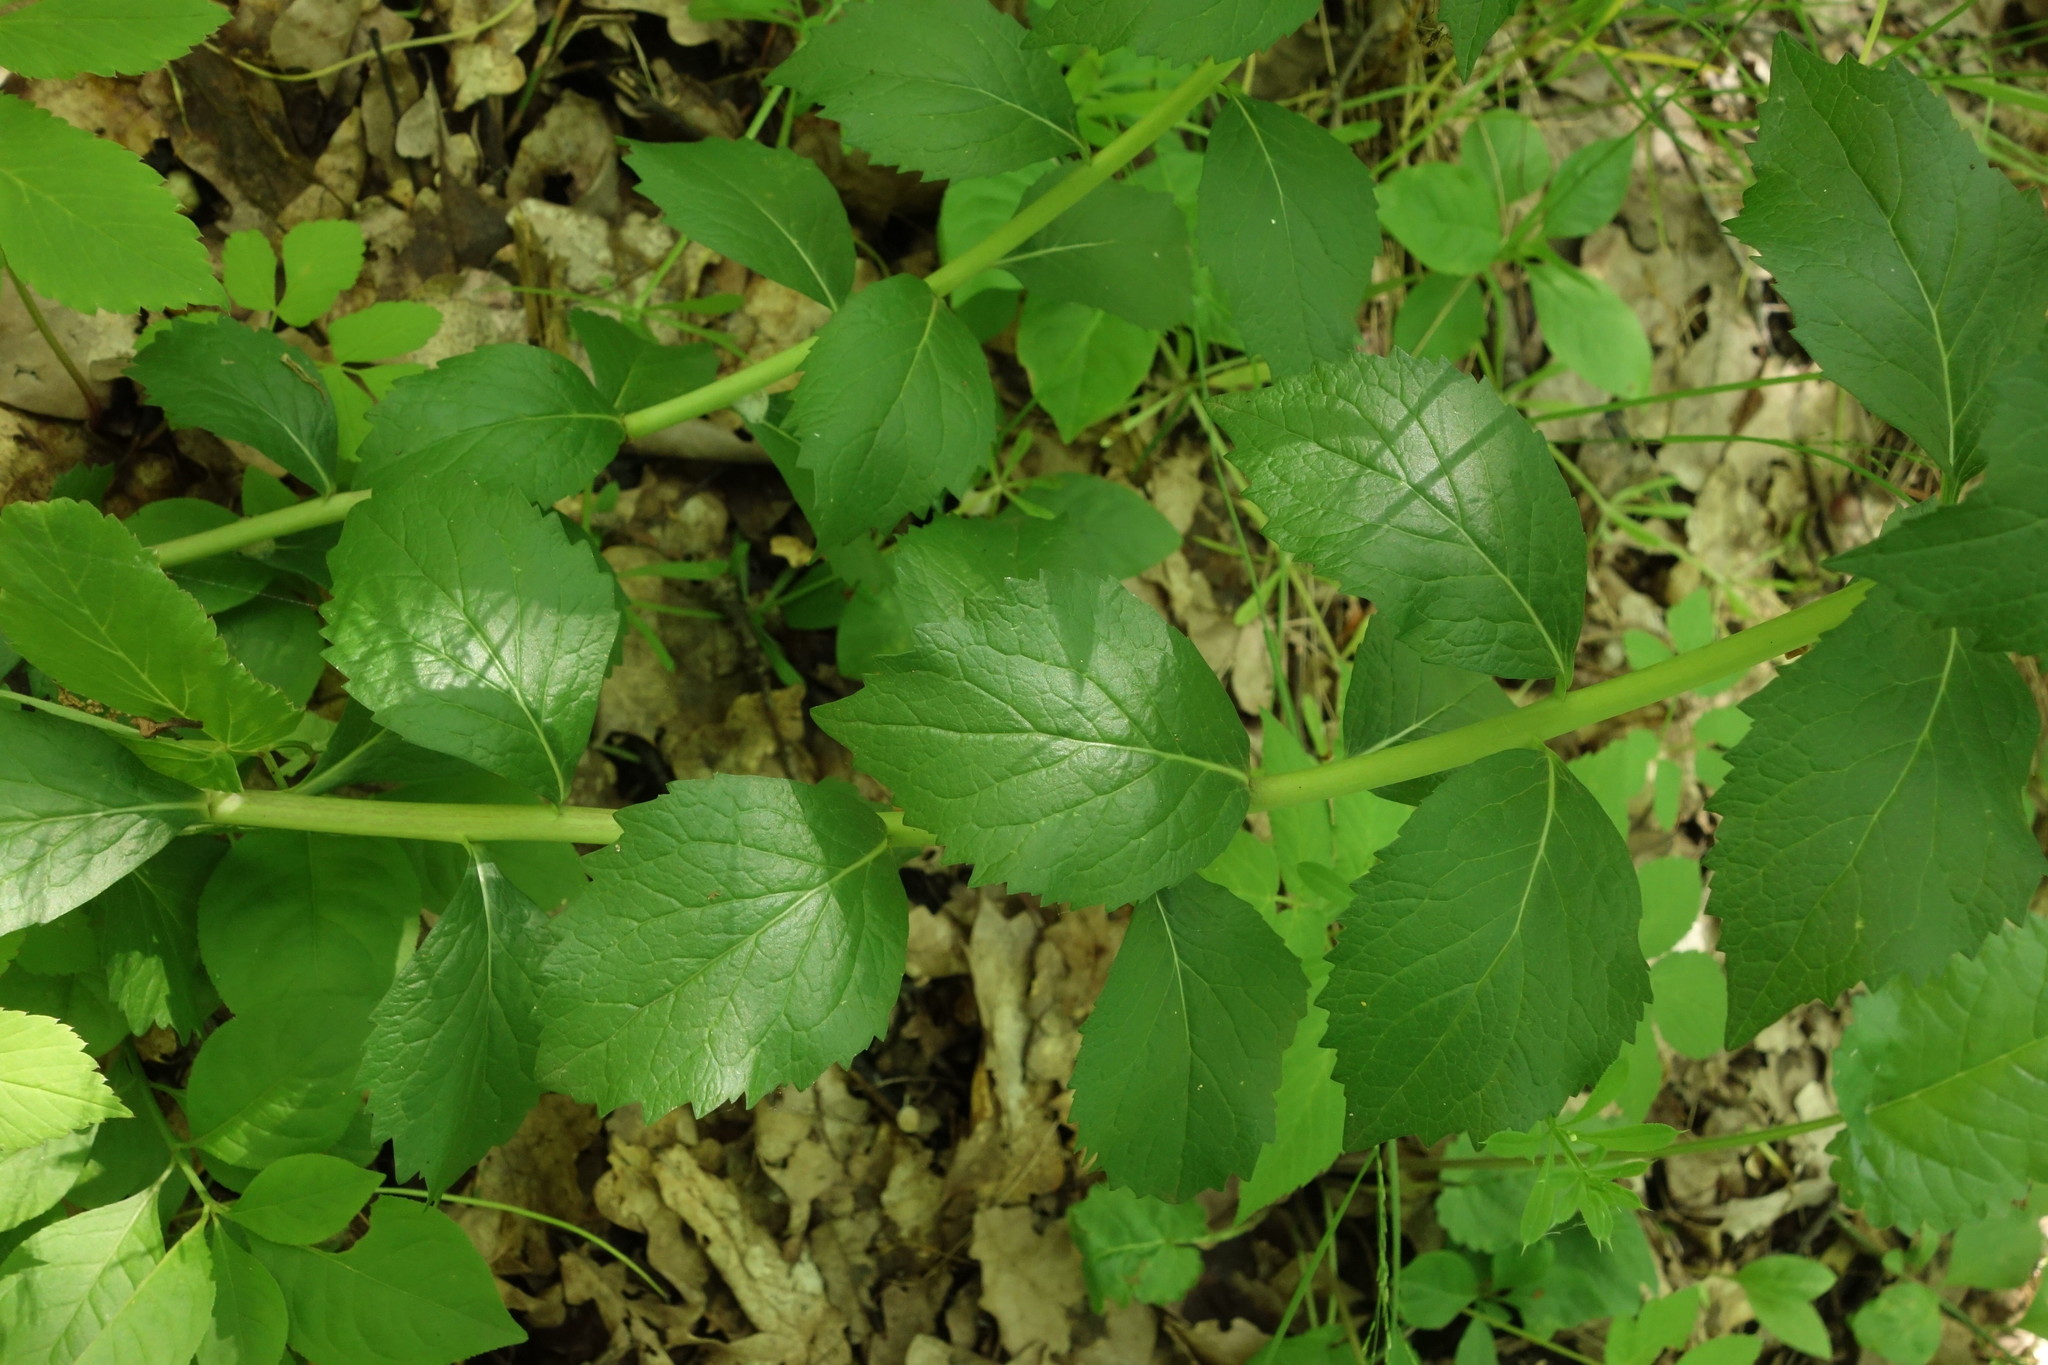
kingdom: Plantae
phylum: Tracheophyta
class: Magnoliopsida
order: Asterales
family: Campanulaceae
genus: Adenophora
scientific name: Adenophora liliifolia
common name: Lilyleaf ladybells
